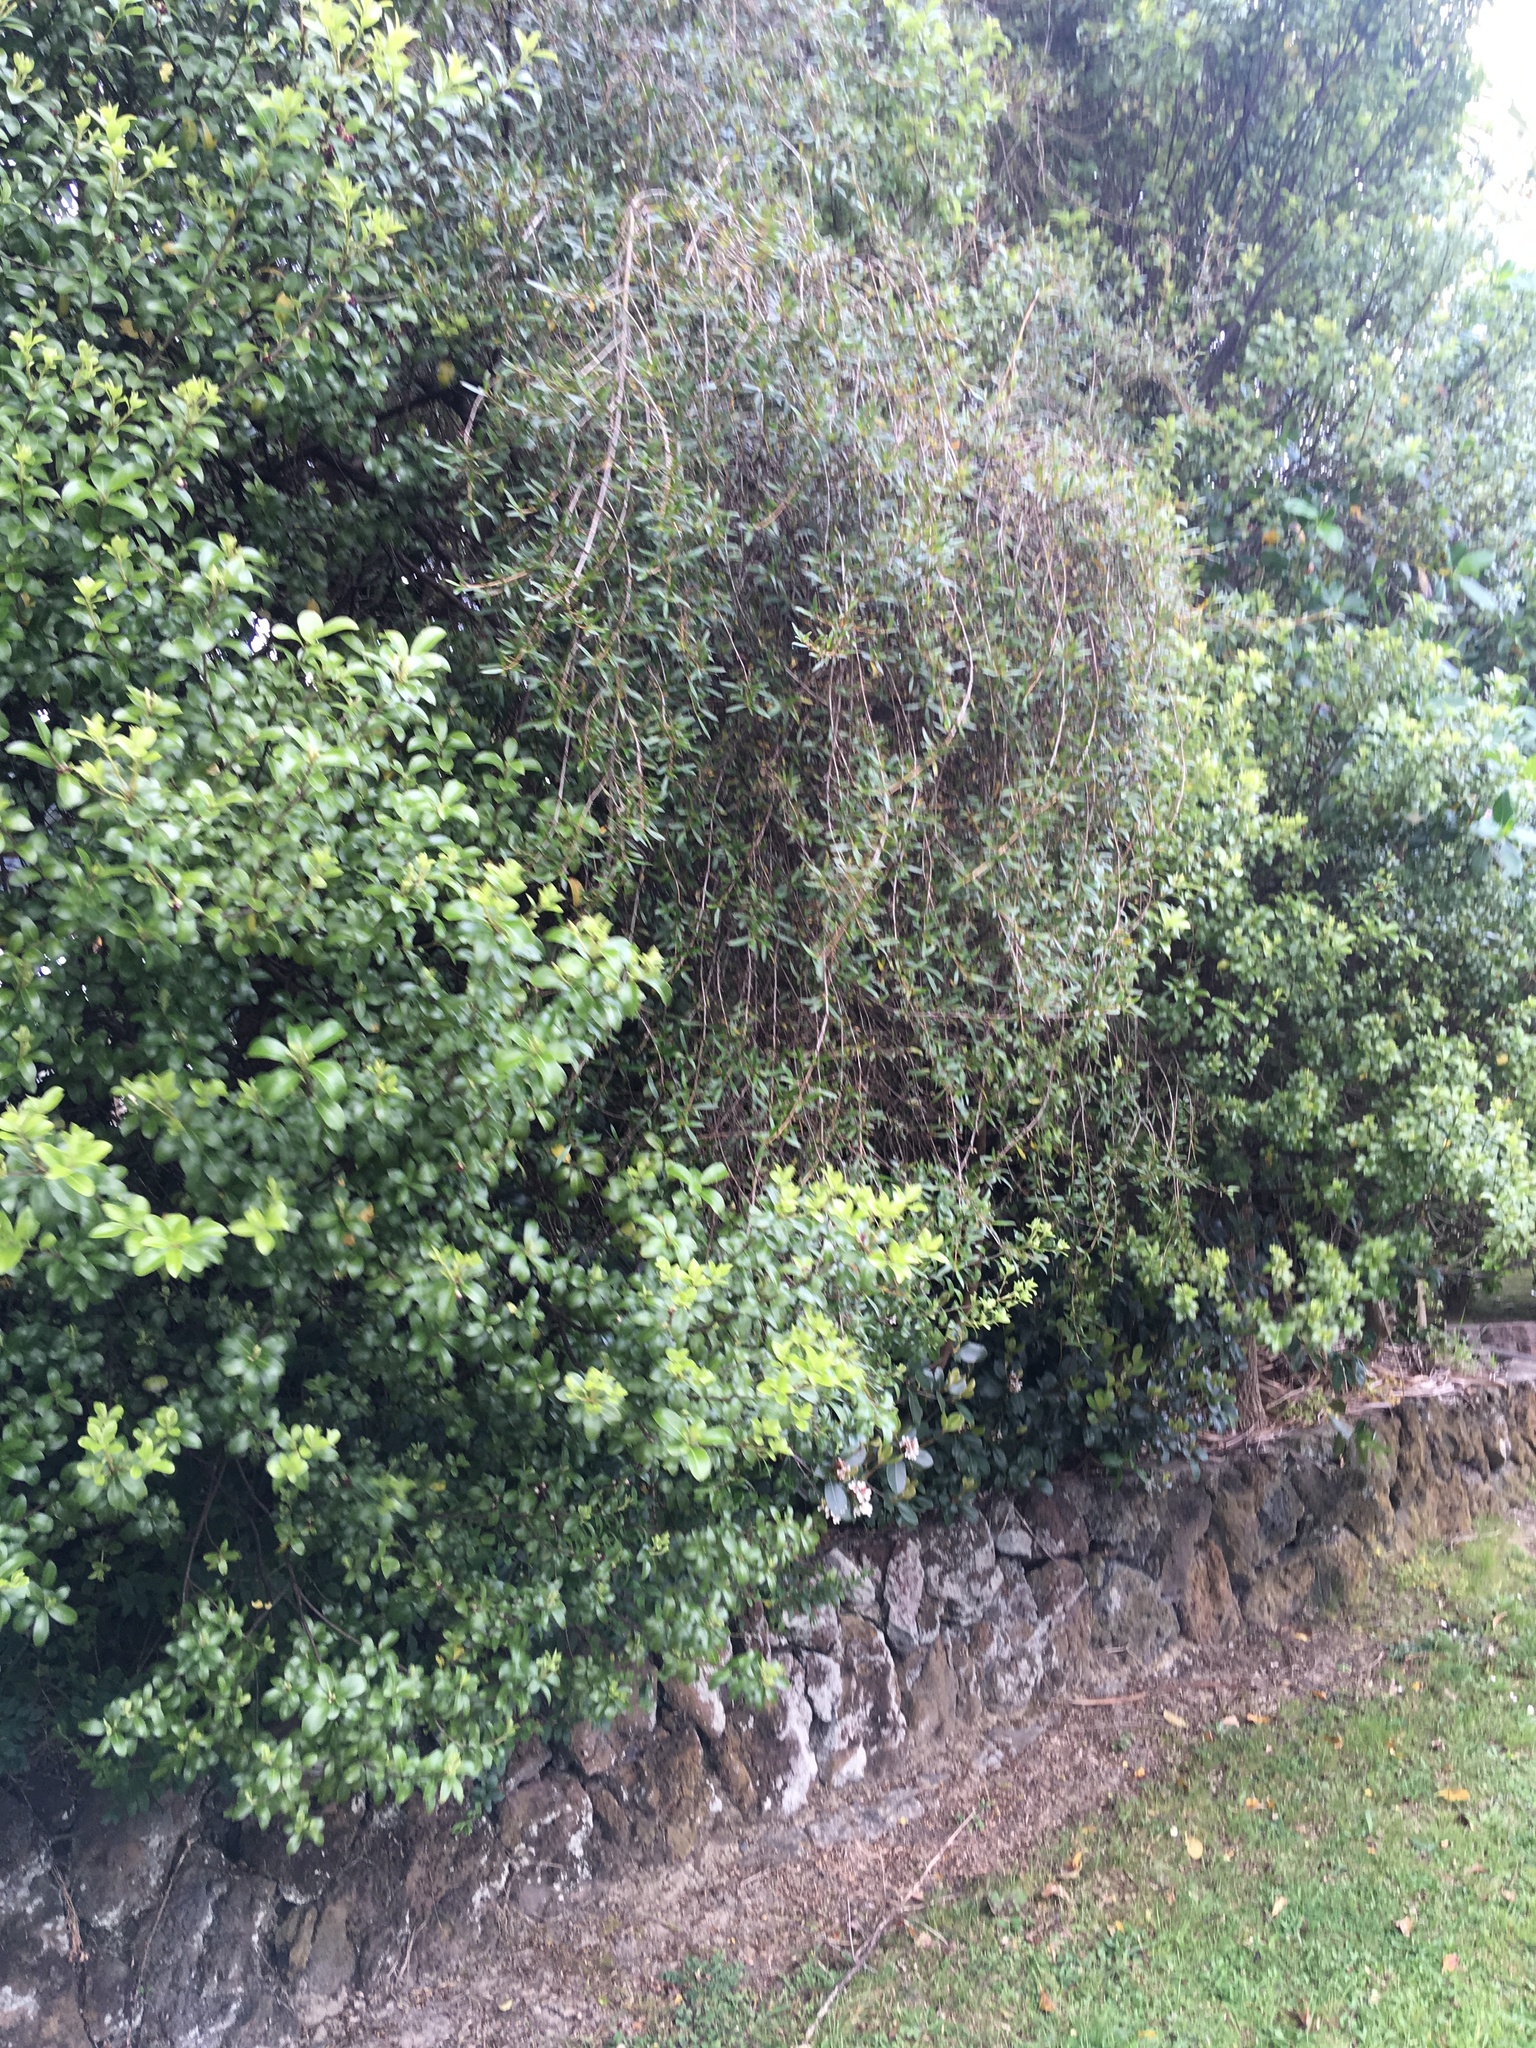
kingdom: Plantae
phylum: Tracheophyta
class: Magnoliopsida
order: Apiales
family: Araliaceae
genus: Hedera
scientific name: Hedera helix
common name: Ivy
